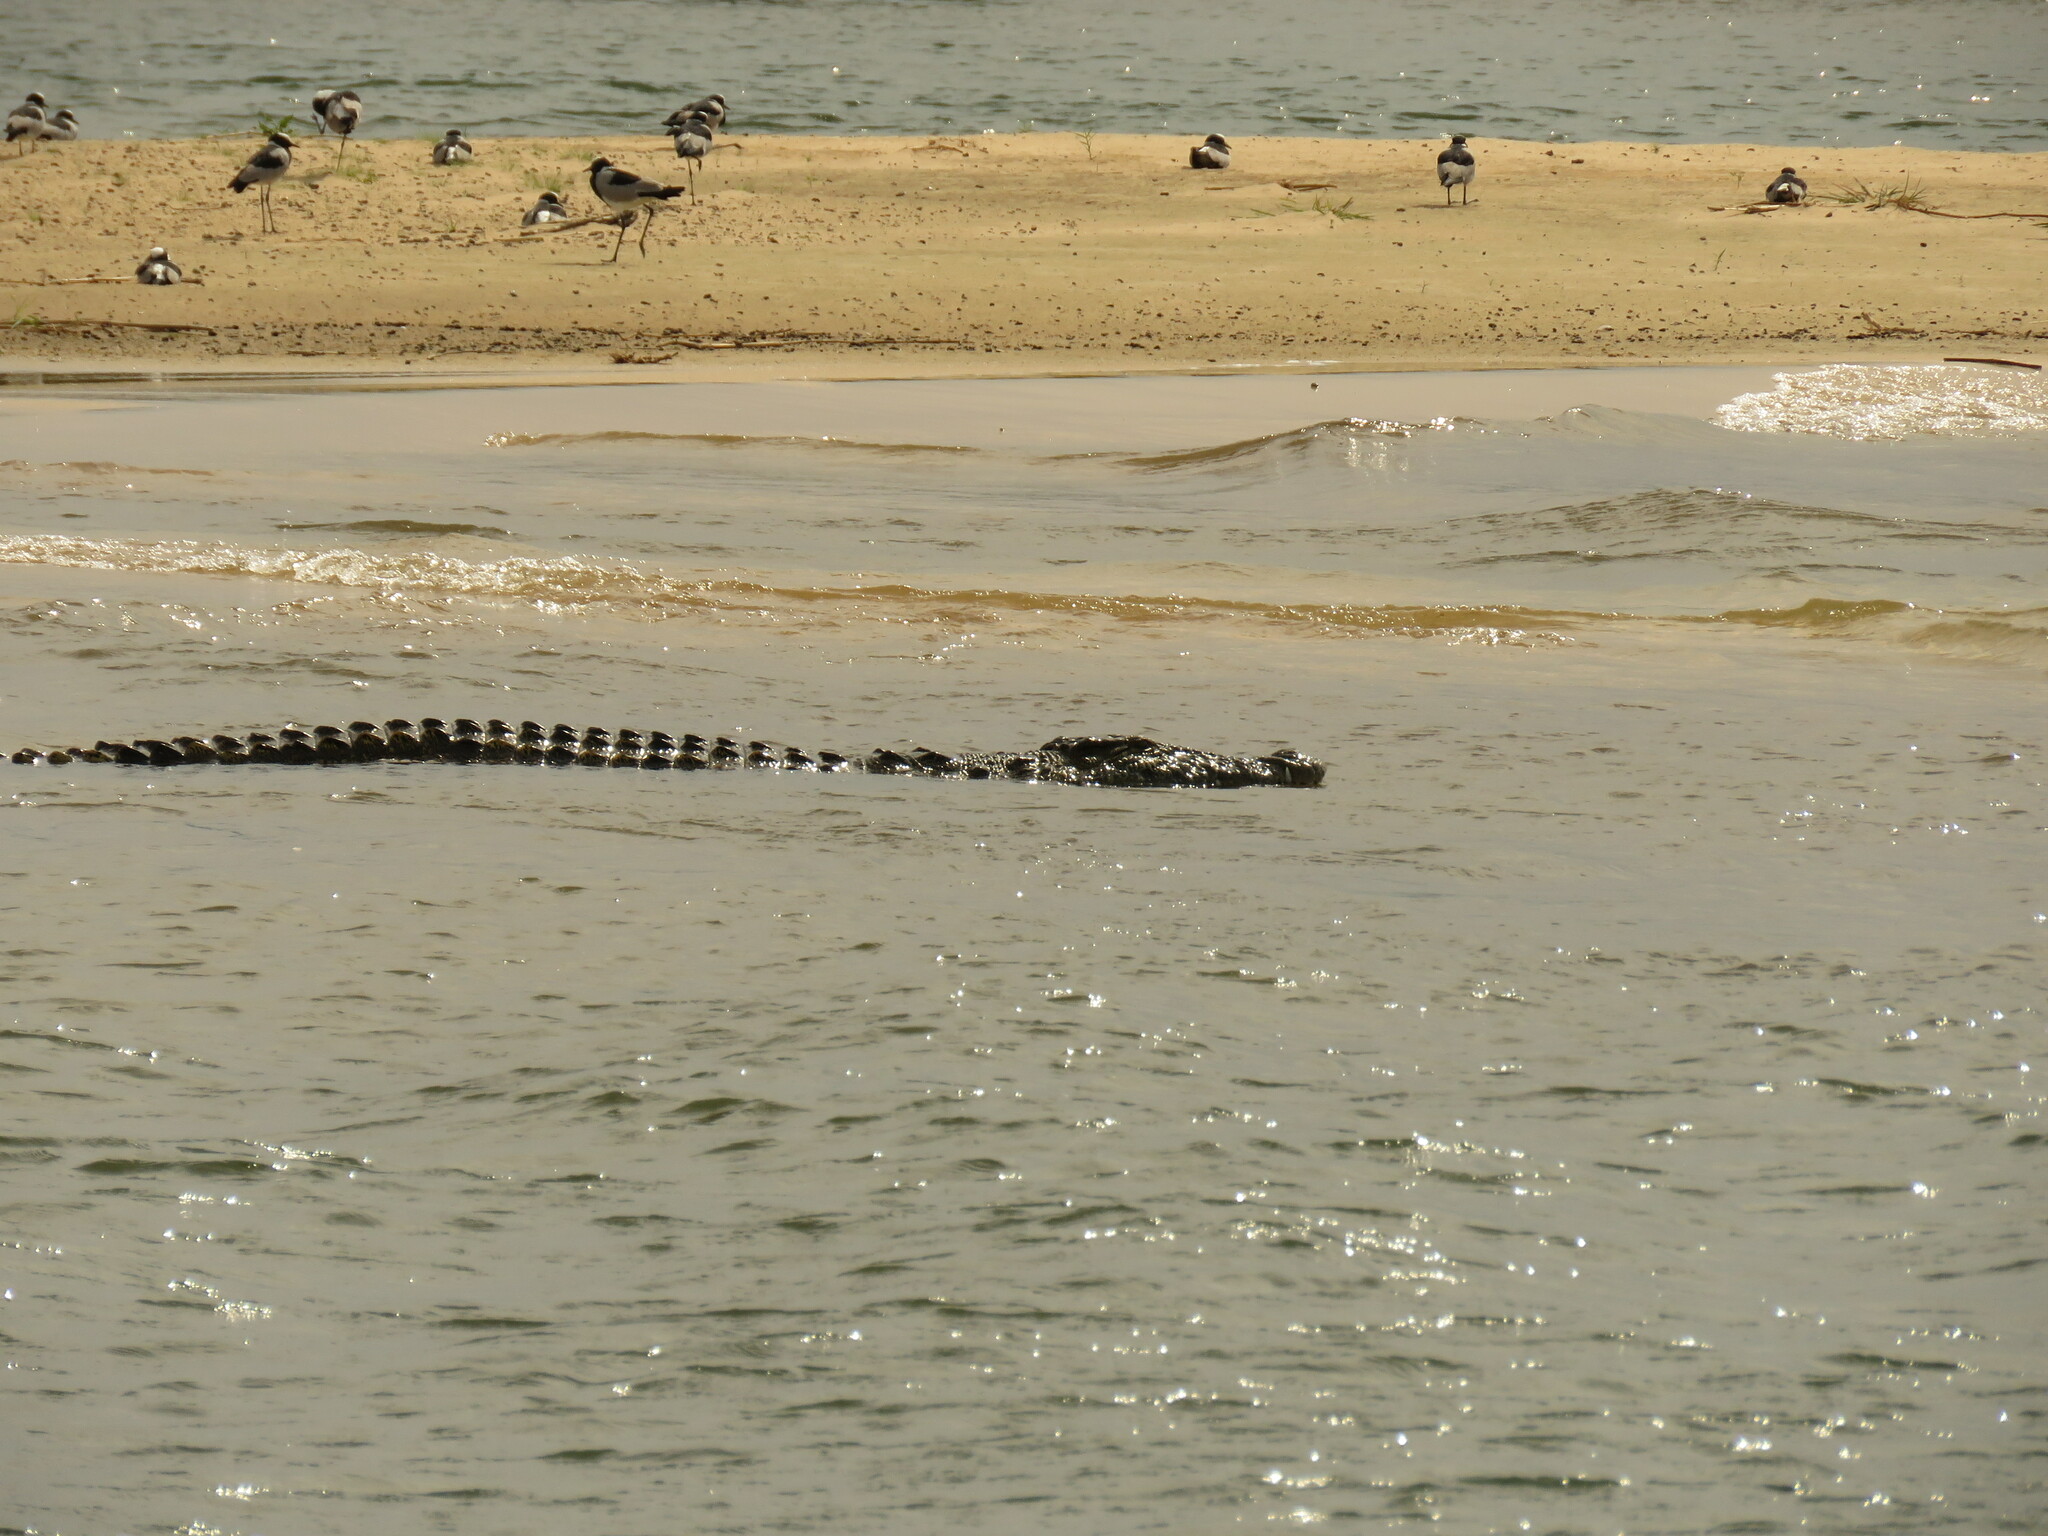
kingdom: Animalia
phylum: Chordata
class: Crocodylia
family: Crocodylidae
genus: Crocodylus
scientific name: Crocodylus niloticus
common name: Nile crocodile
